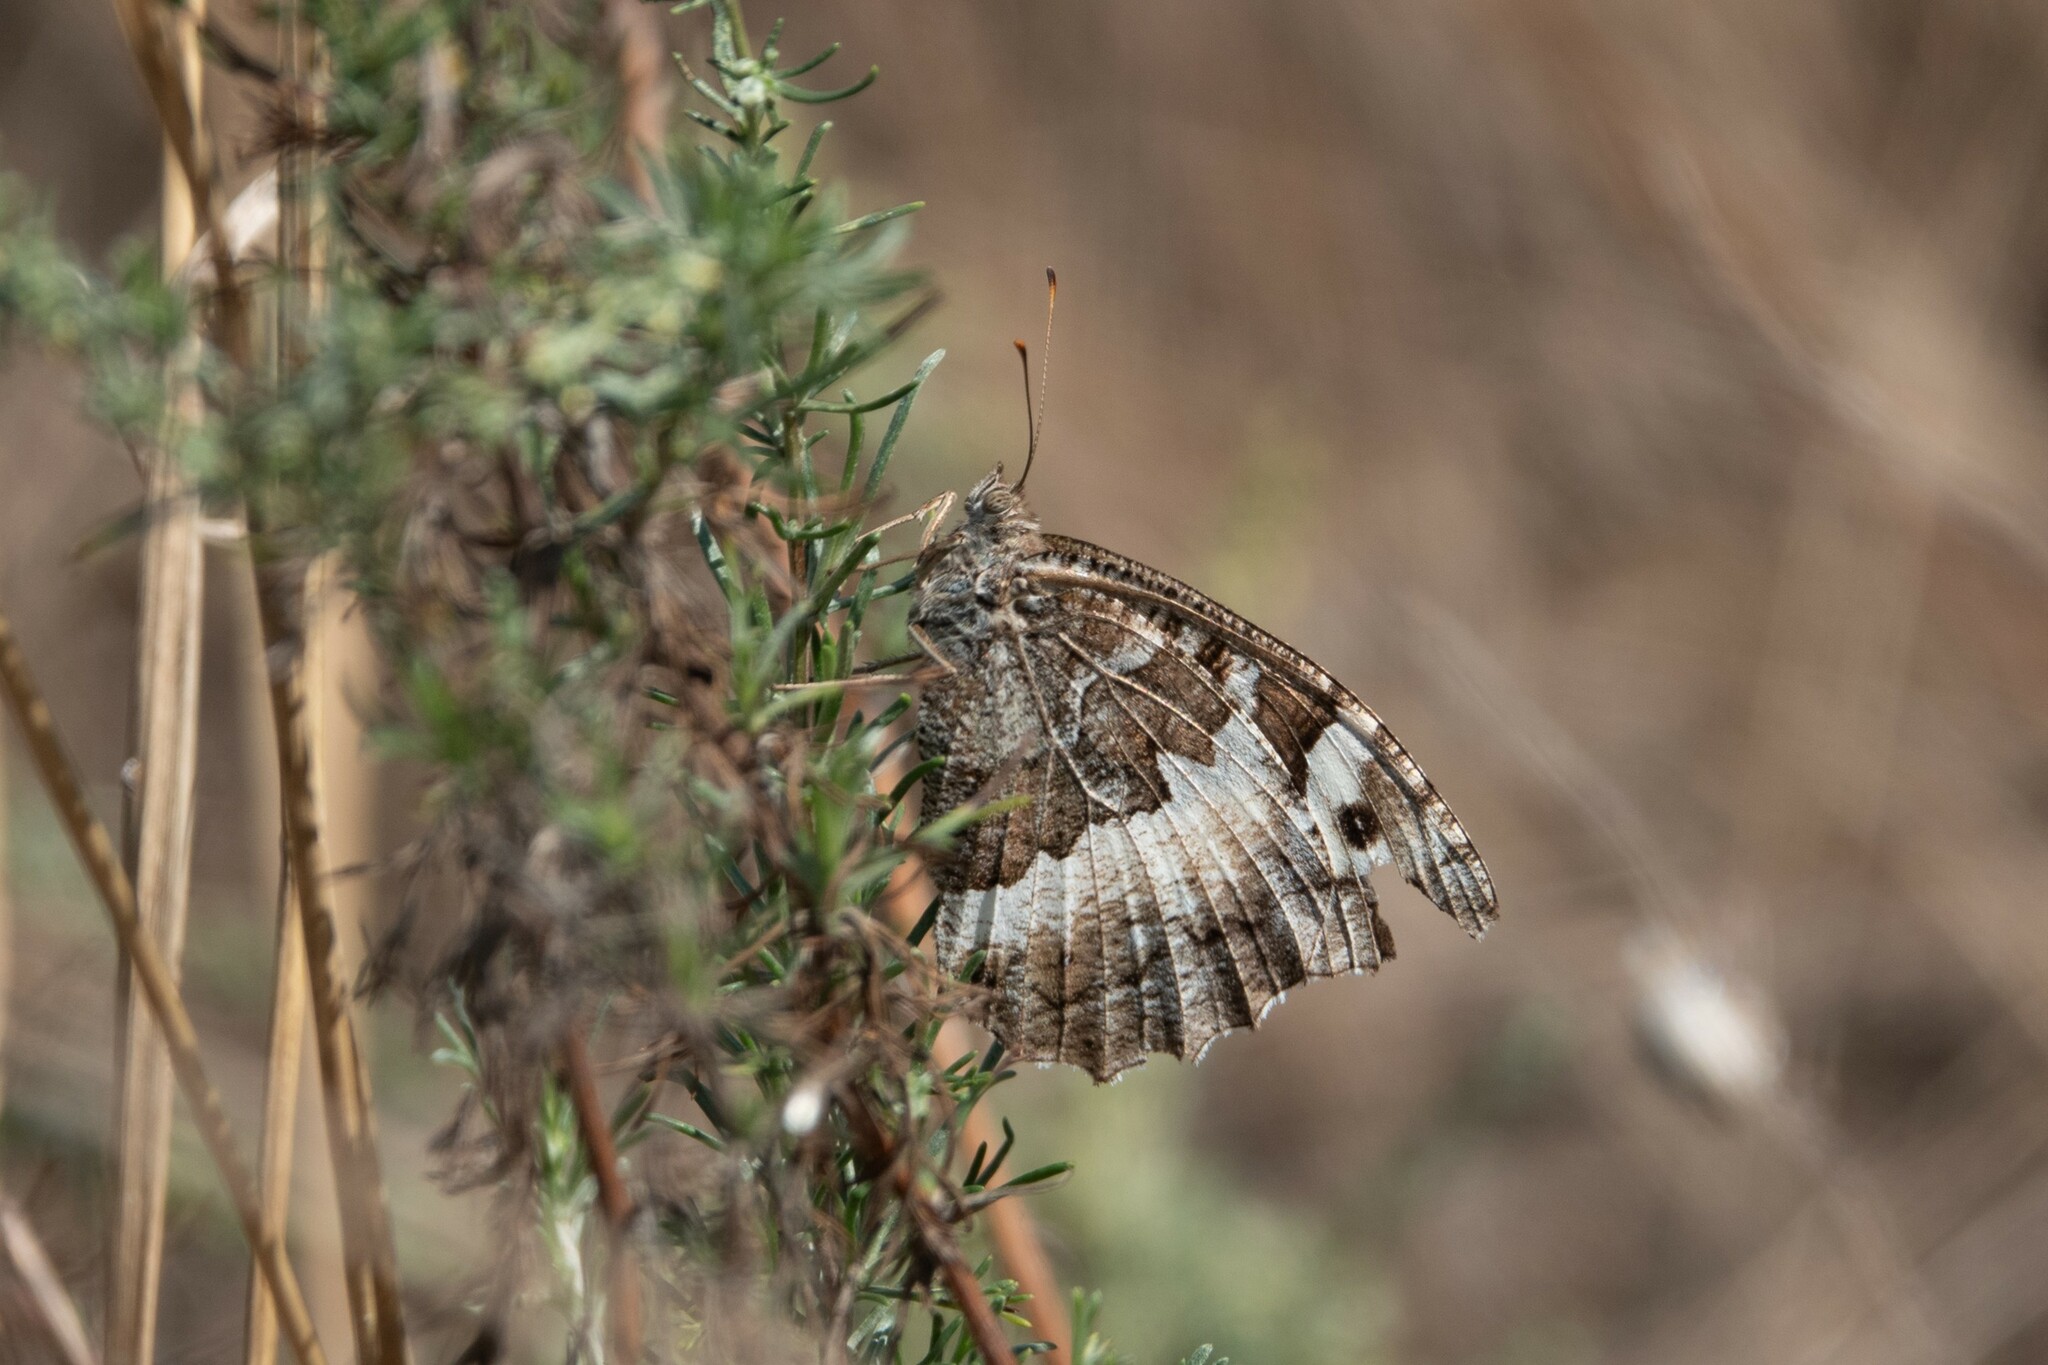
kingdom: Animalia
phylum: Arthropoda
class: Insecta
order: Lepidoptera
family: Lycaenidae
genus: Loweia
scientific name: Loweia tityrus
